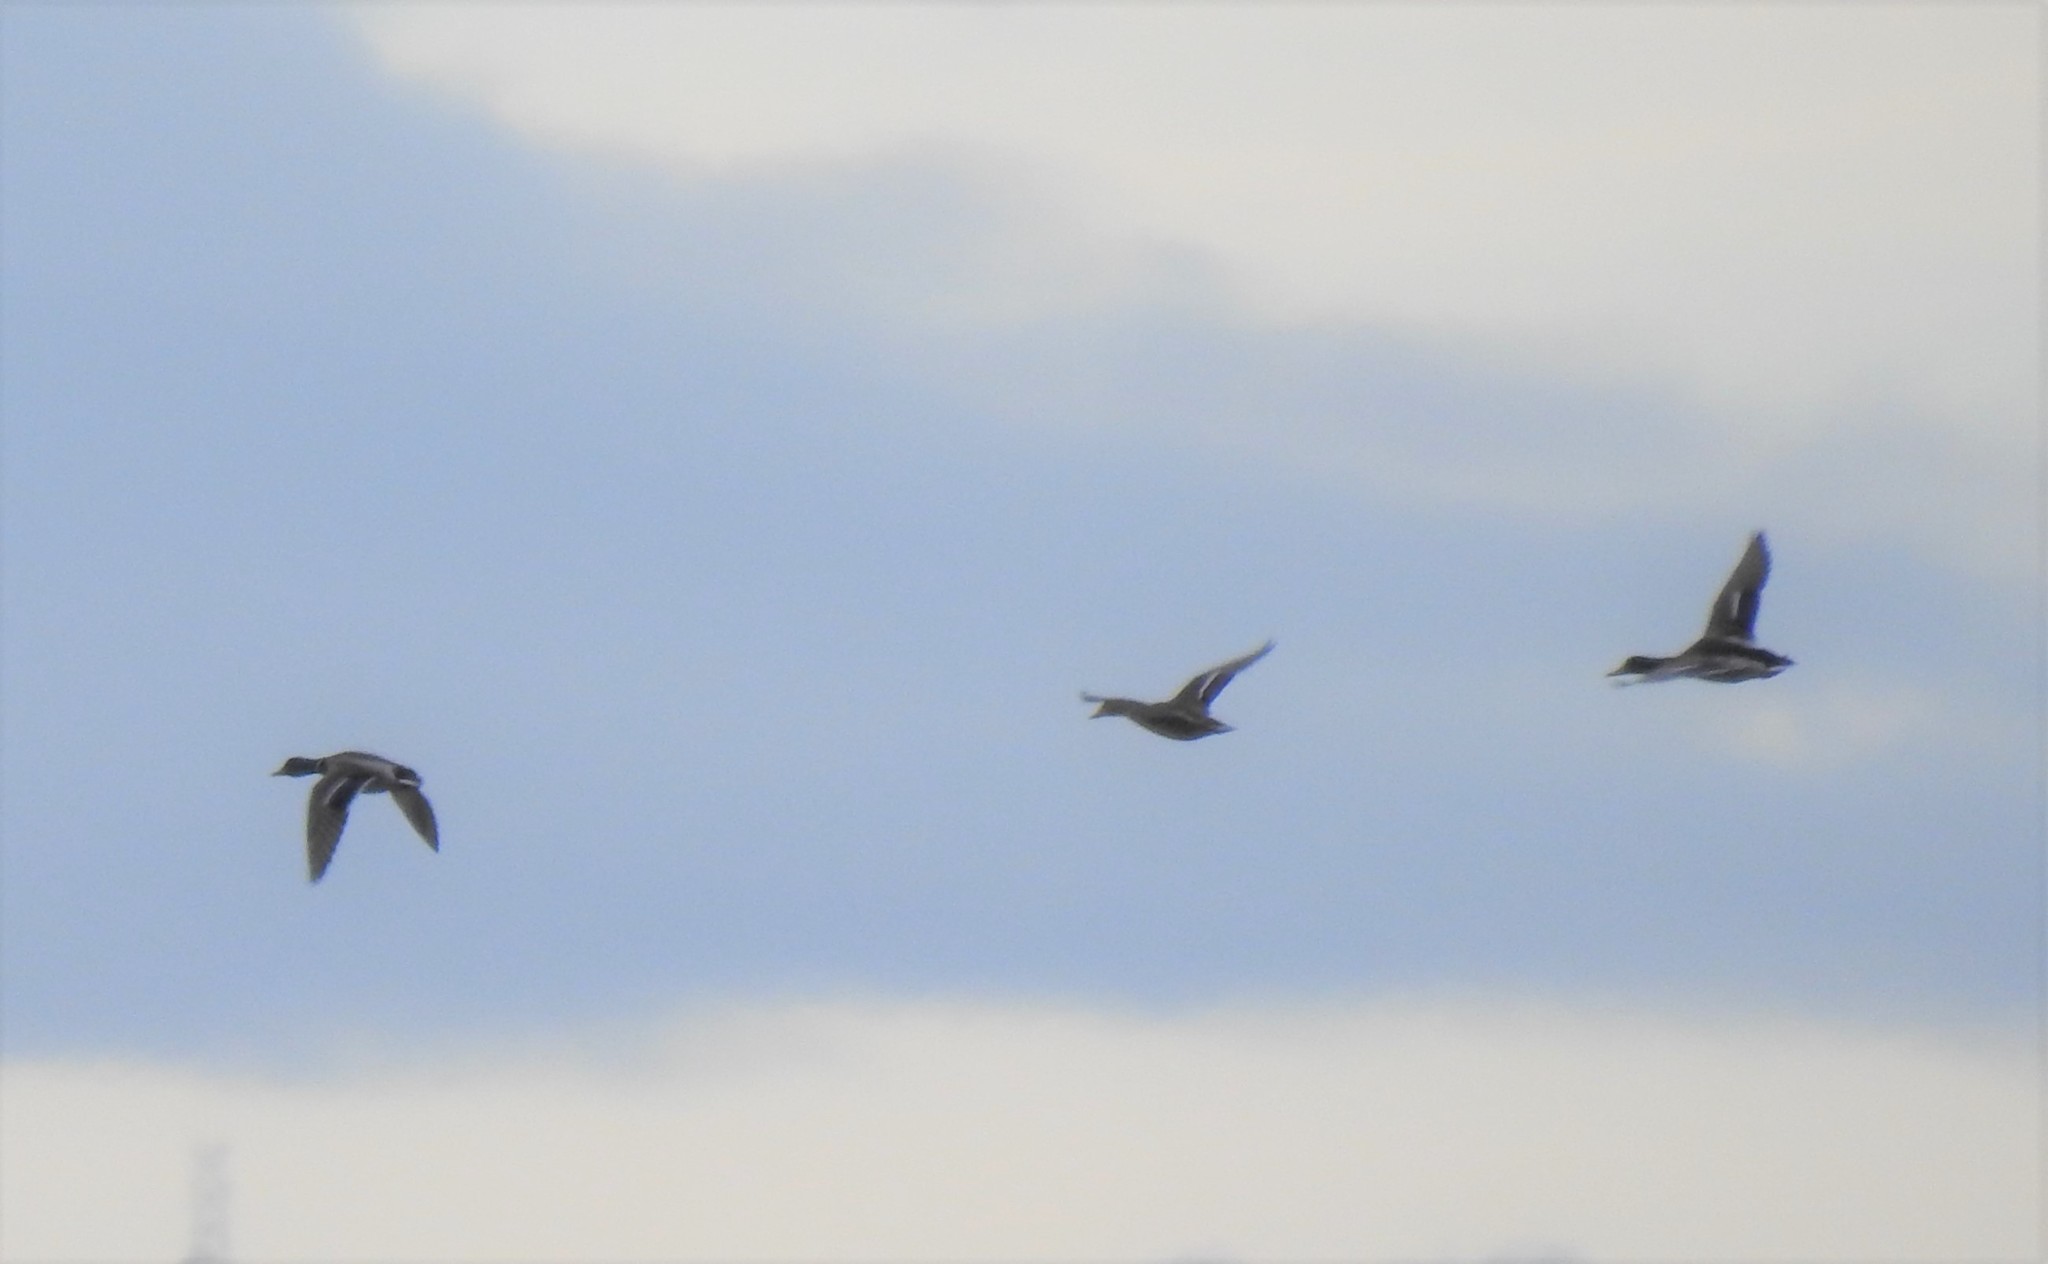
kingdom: Animalia
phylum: Chordata
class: Aves
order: Anseriformes
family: Anatidae
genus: Anas
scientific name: Anas platyrhynchos
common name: Mallard
